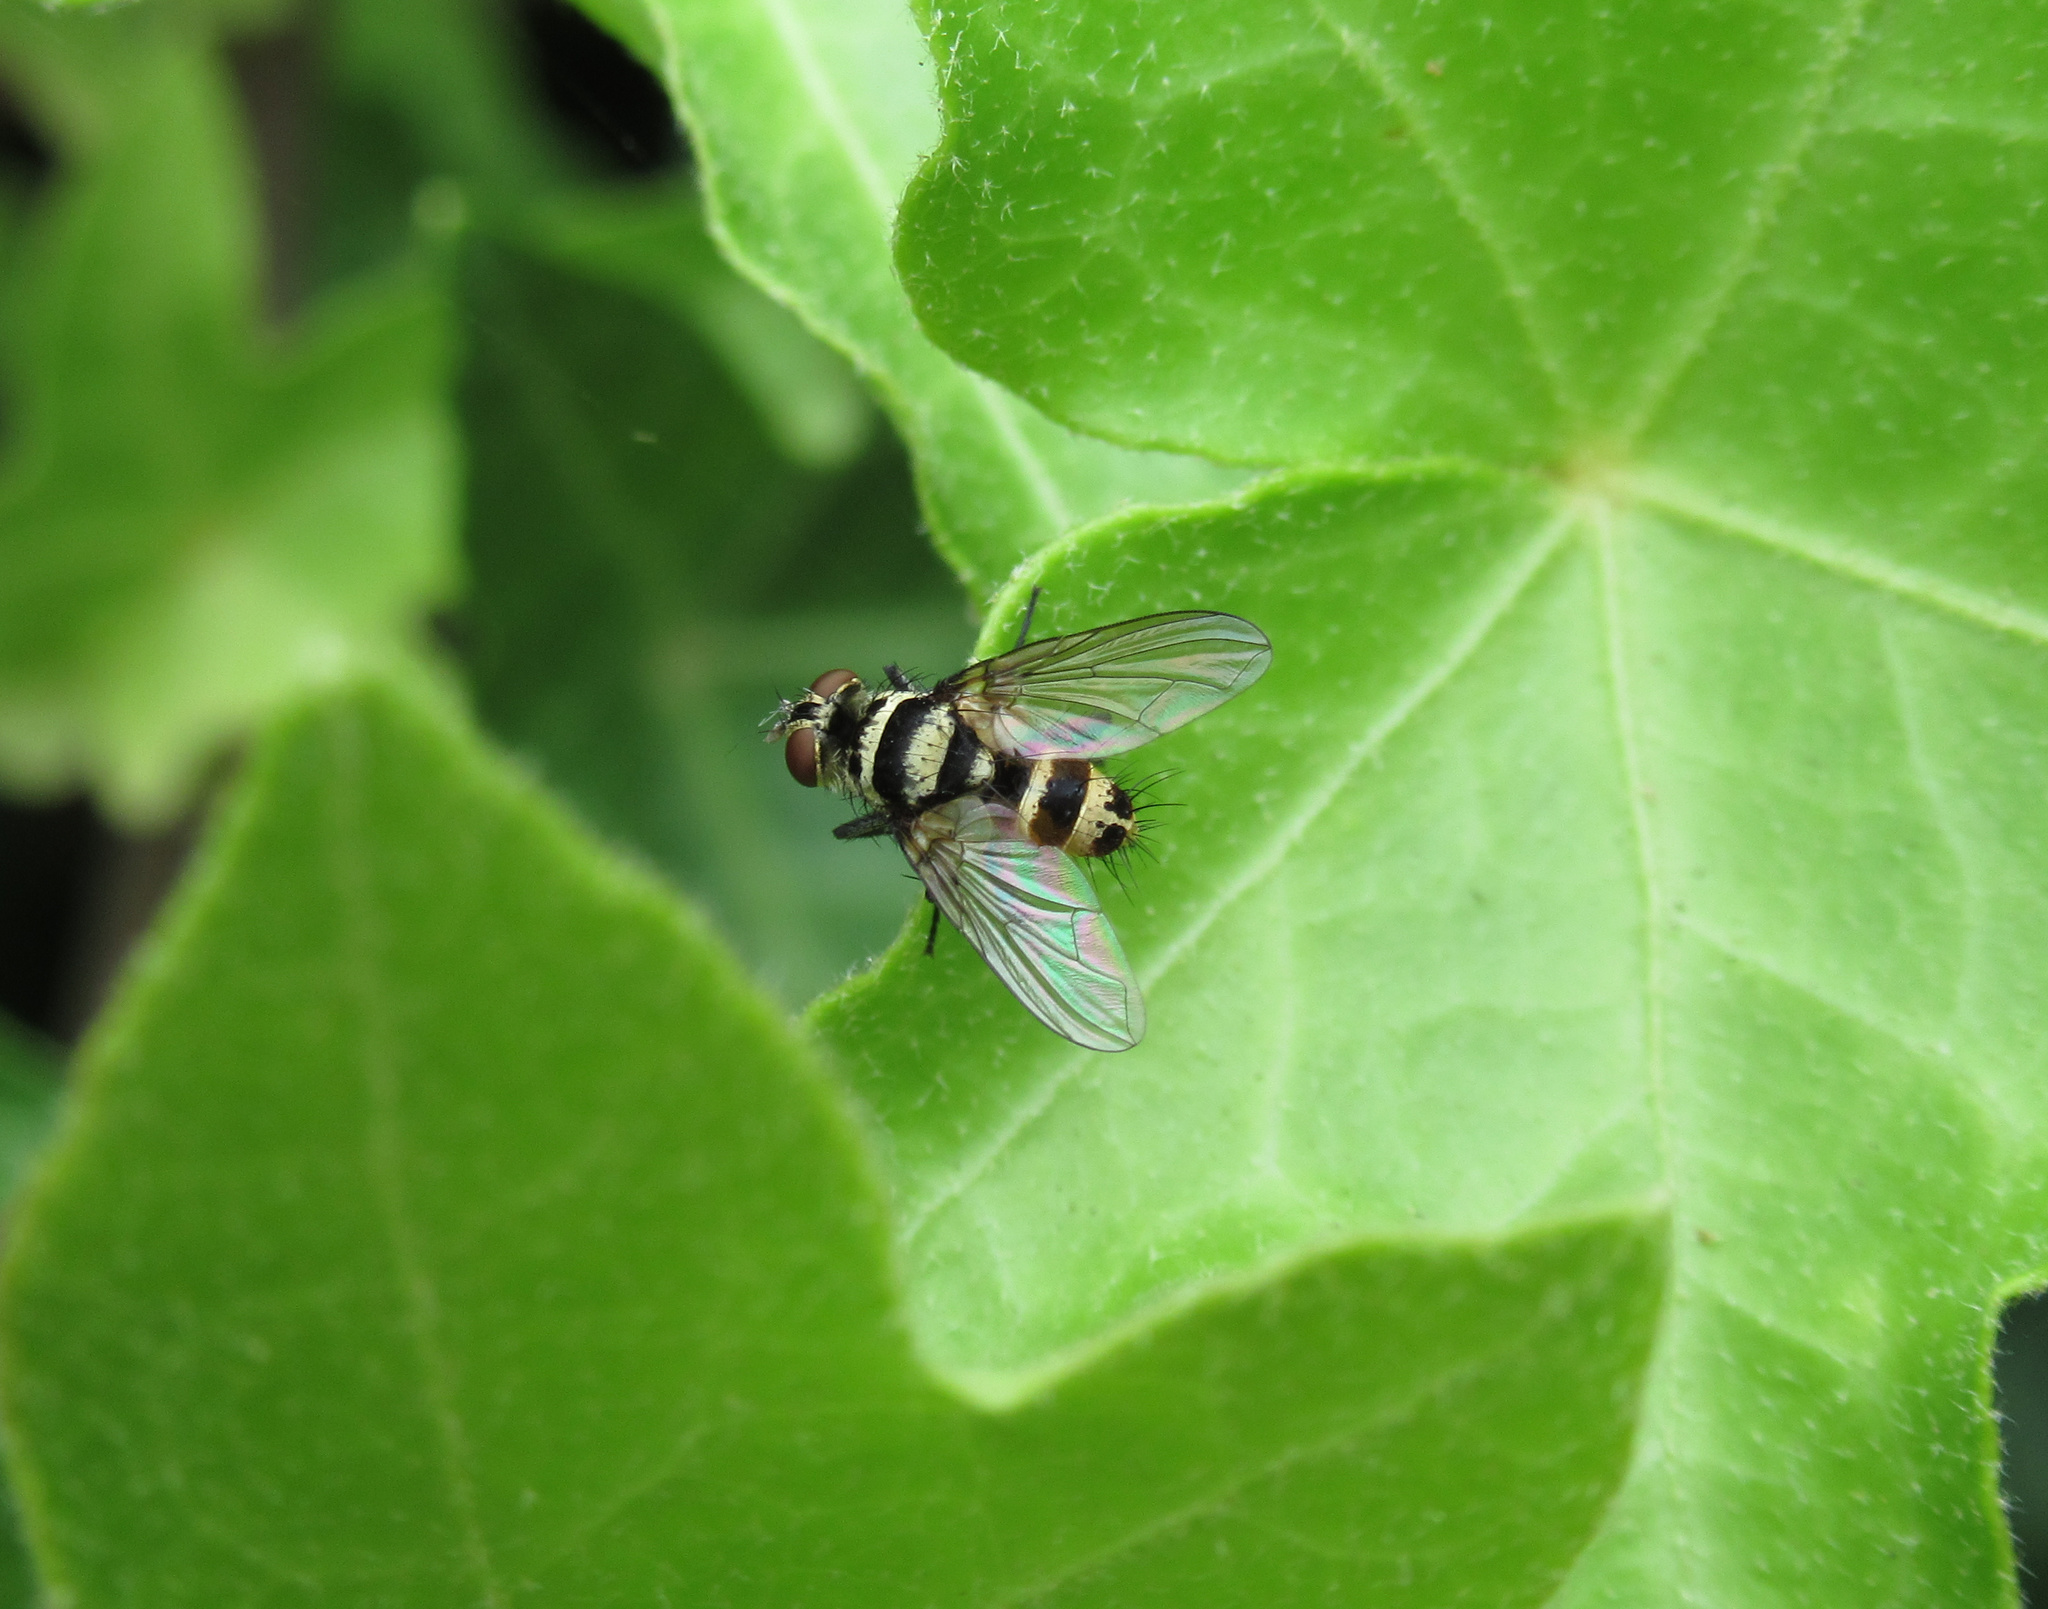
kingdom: Animalia
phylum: Arthropoda
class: Insecta
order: Diptera
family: Tachinidae
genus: Trigonospila
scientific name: Trigonospila brevifacies
